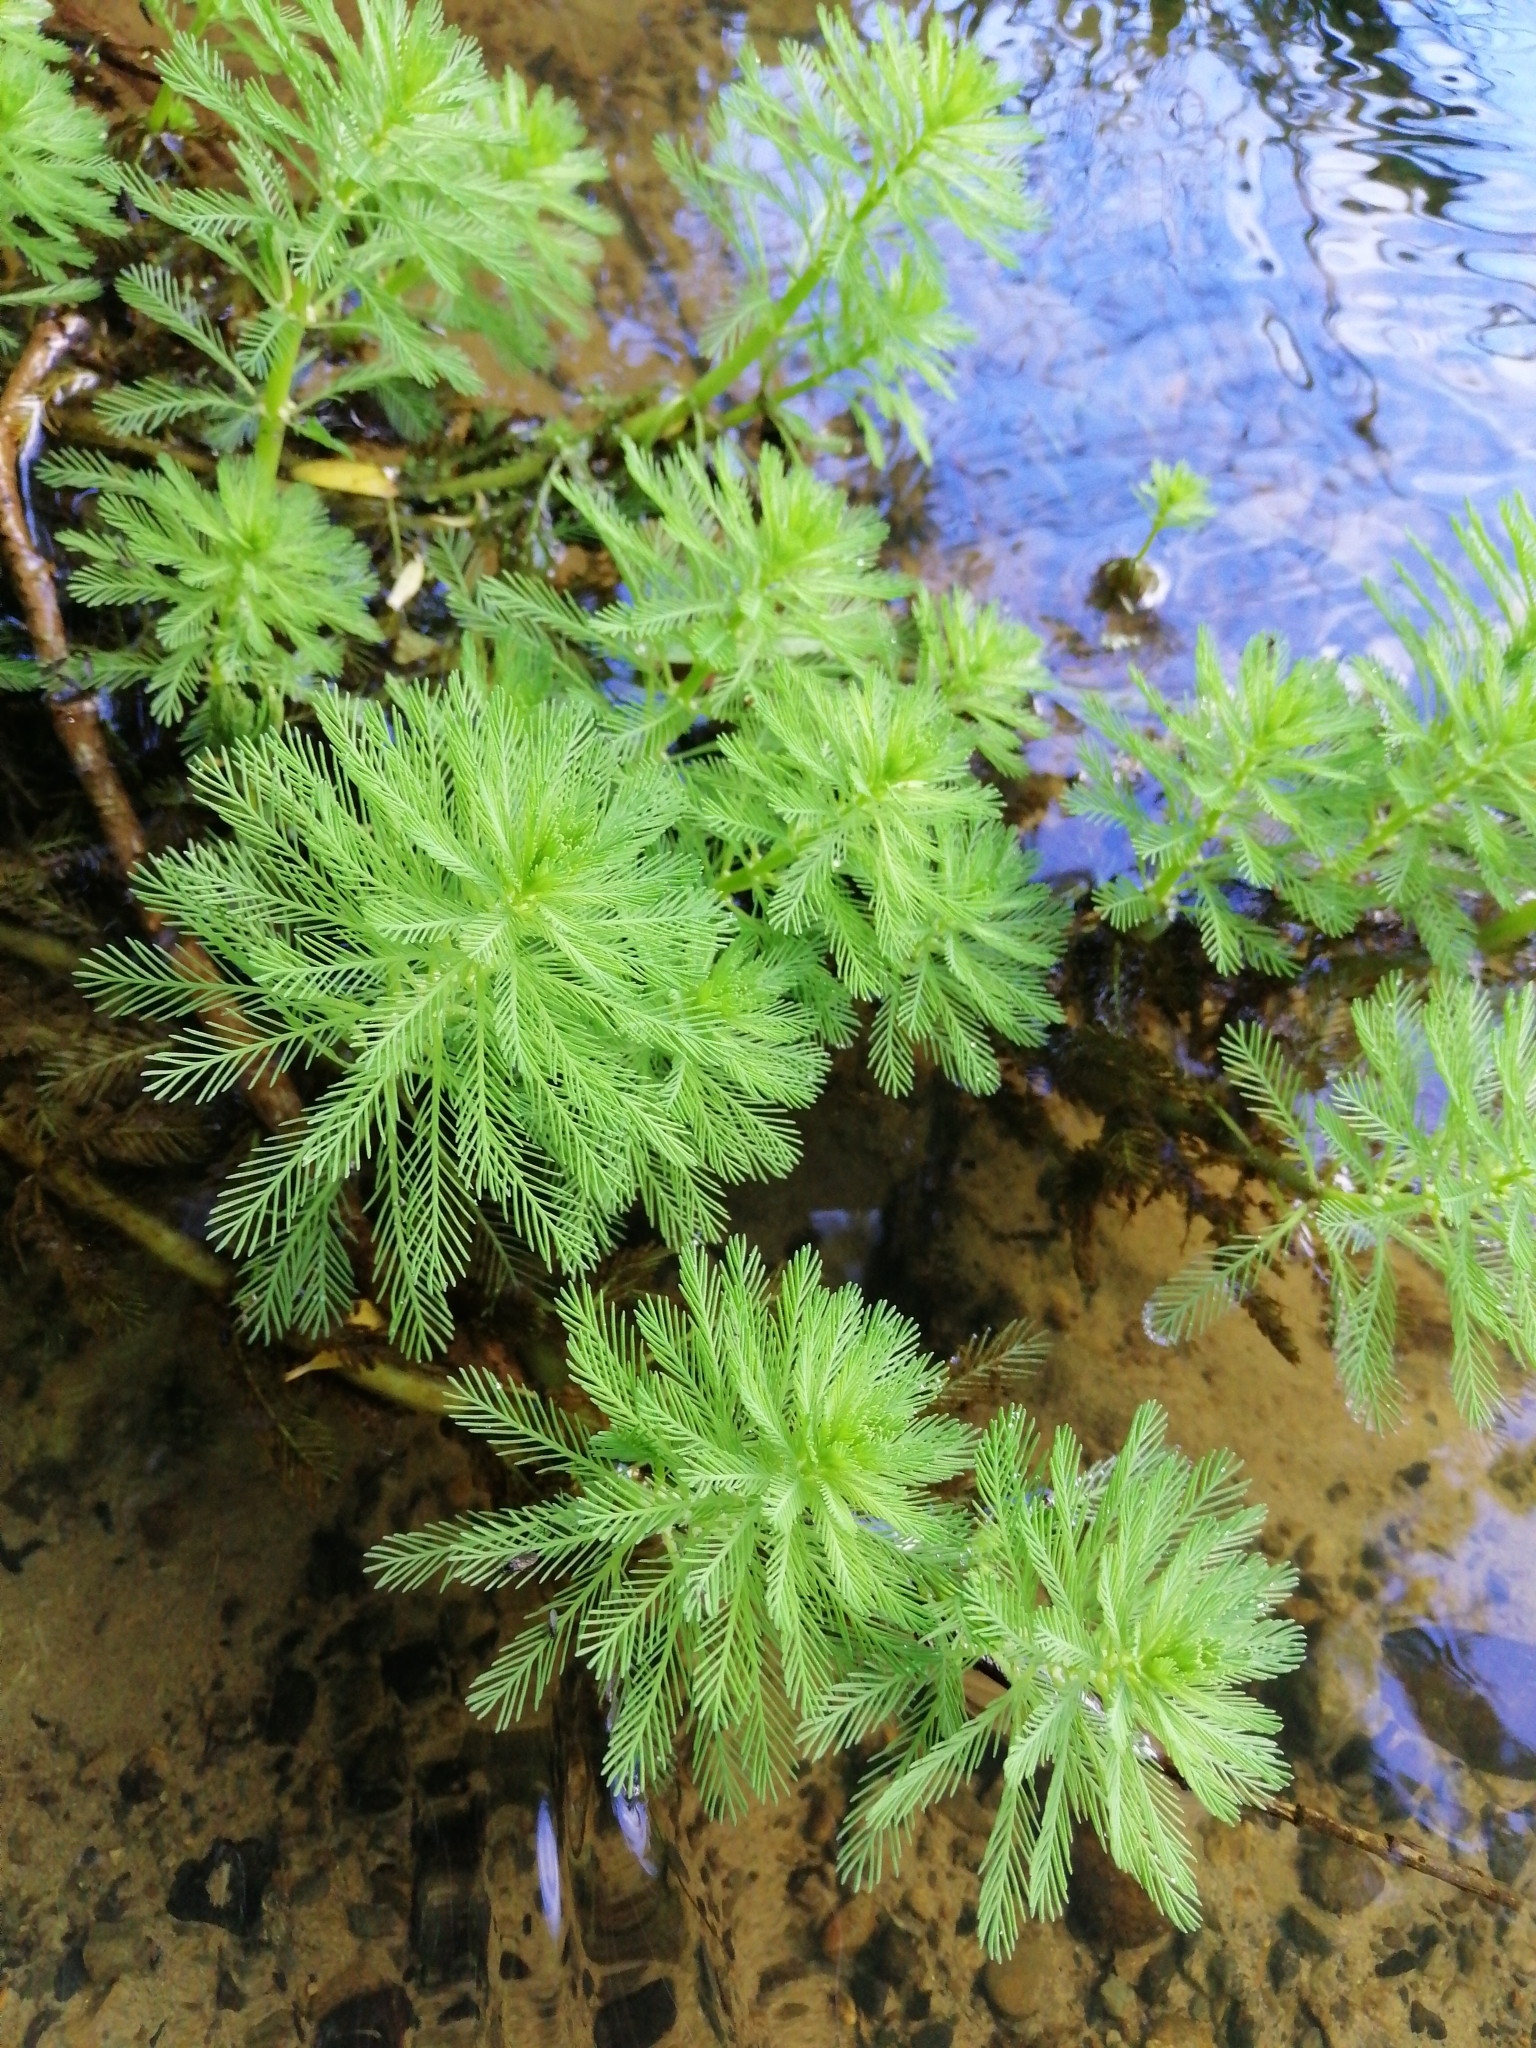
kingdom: Plantae
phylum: Tracheophyta
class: Magnoliopsida
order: Saxifragales
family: Haloragaceae
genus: Myriophyllum
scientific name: Myriophyllum aquaticum
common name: Parrot's feather
